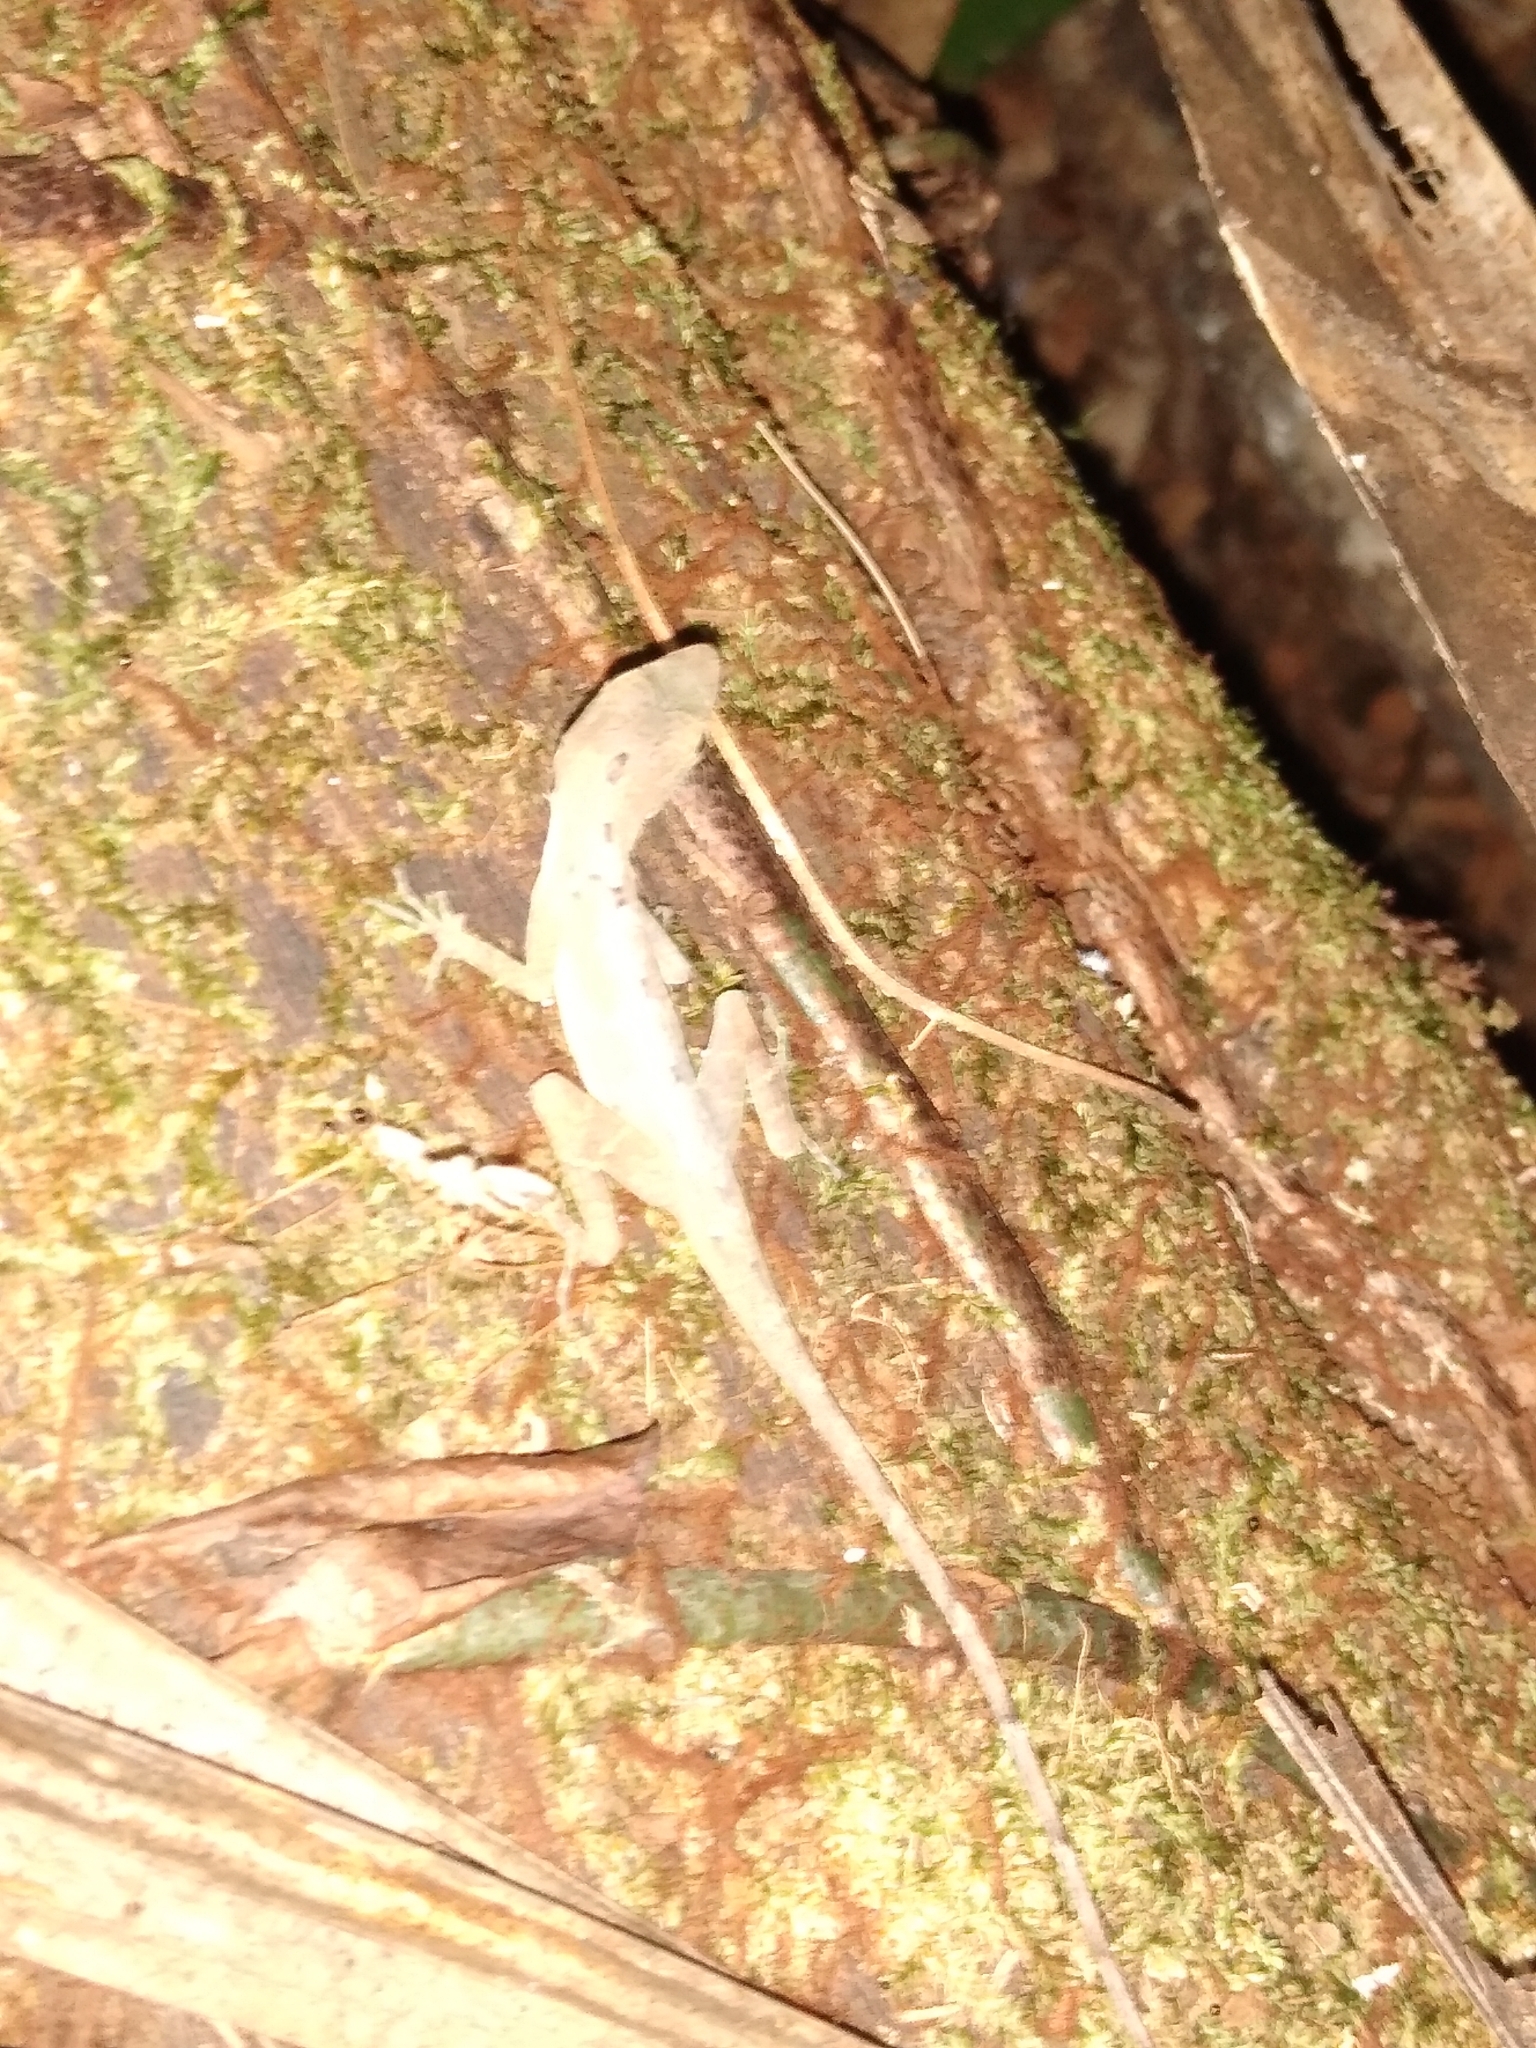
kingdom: Animalia
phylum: Chordata
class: Squamata
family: Dactyloidae
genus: Anolis
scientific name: Anolis rodriguezii
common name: Middle american smooth anole
